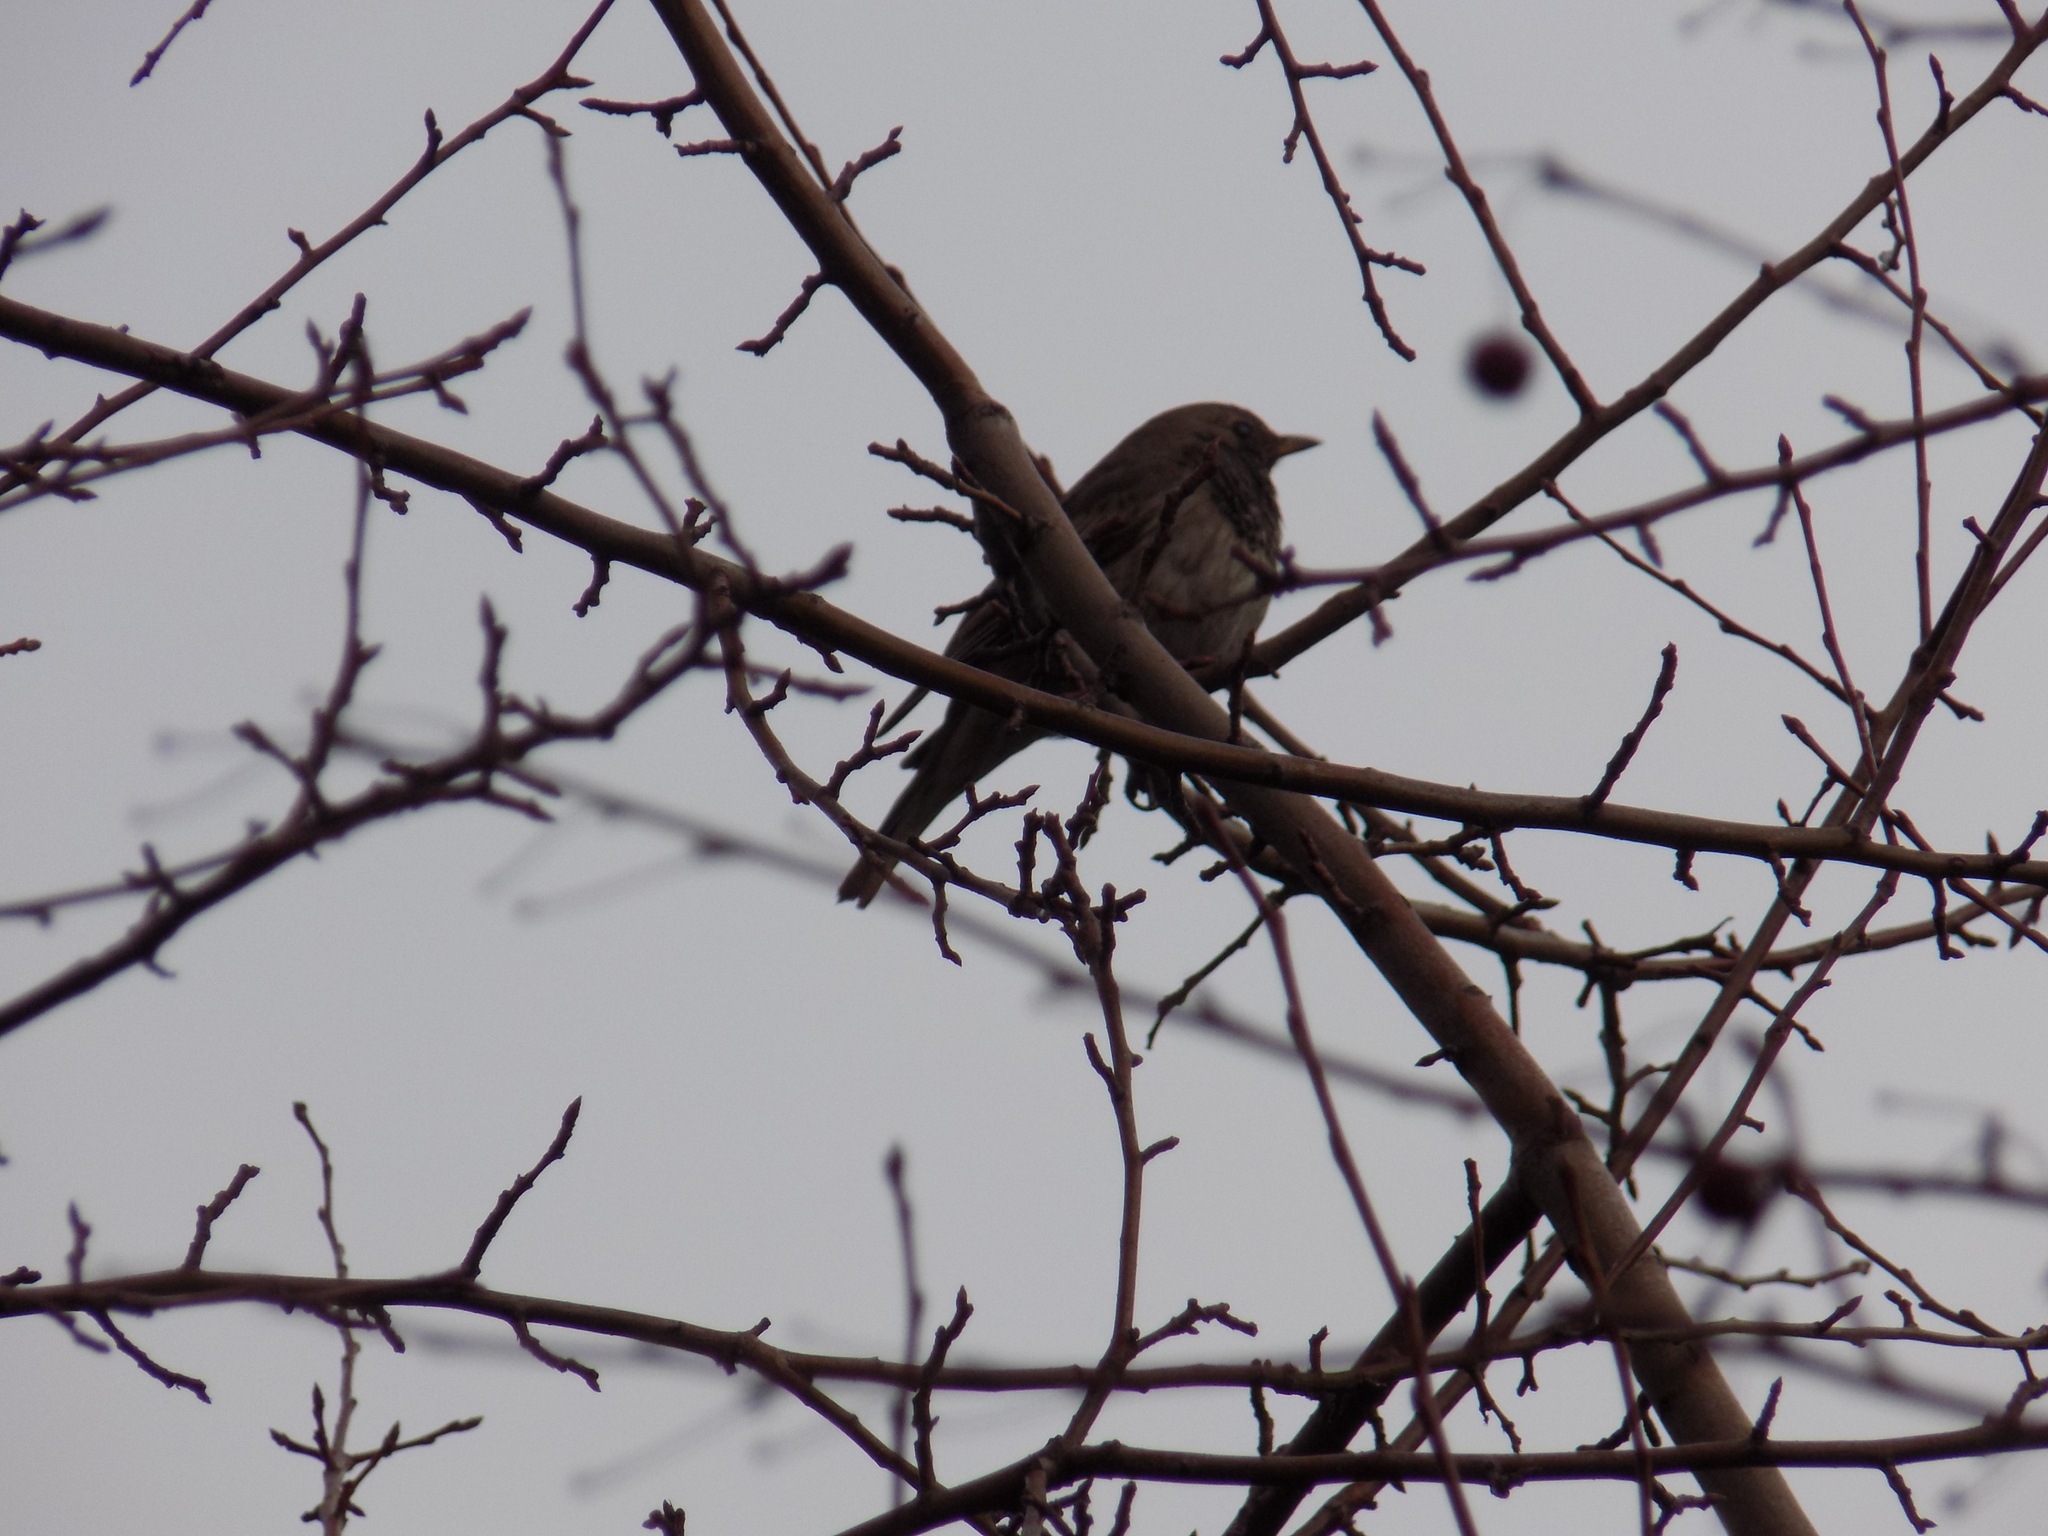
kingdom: Animalia
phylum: Chordata
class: Aves
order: Passeriformes
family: Turdidae
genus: Turdus
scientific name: Turdus atrogularis
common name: Black-throated thrush
